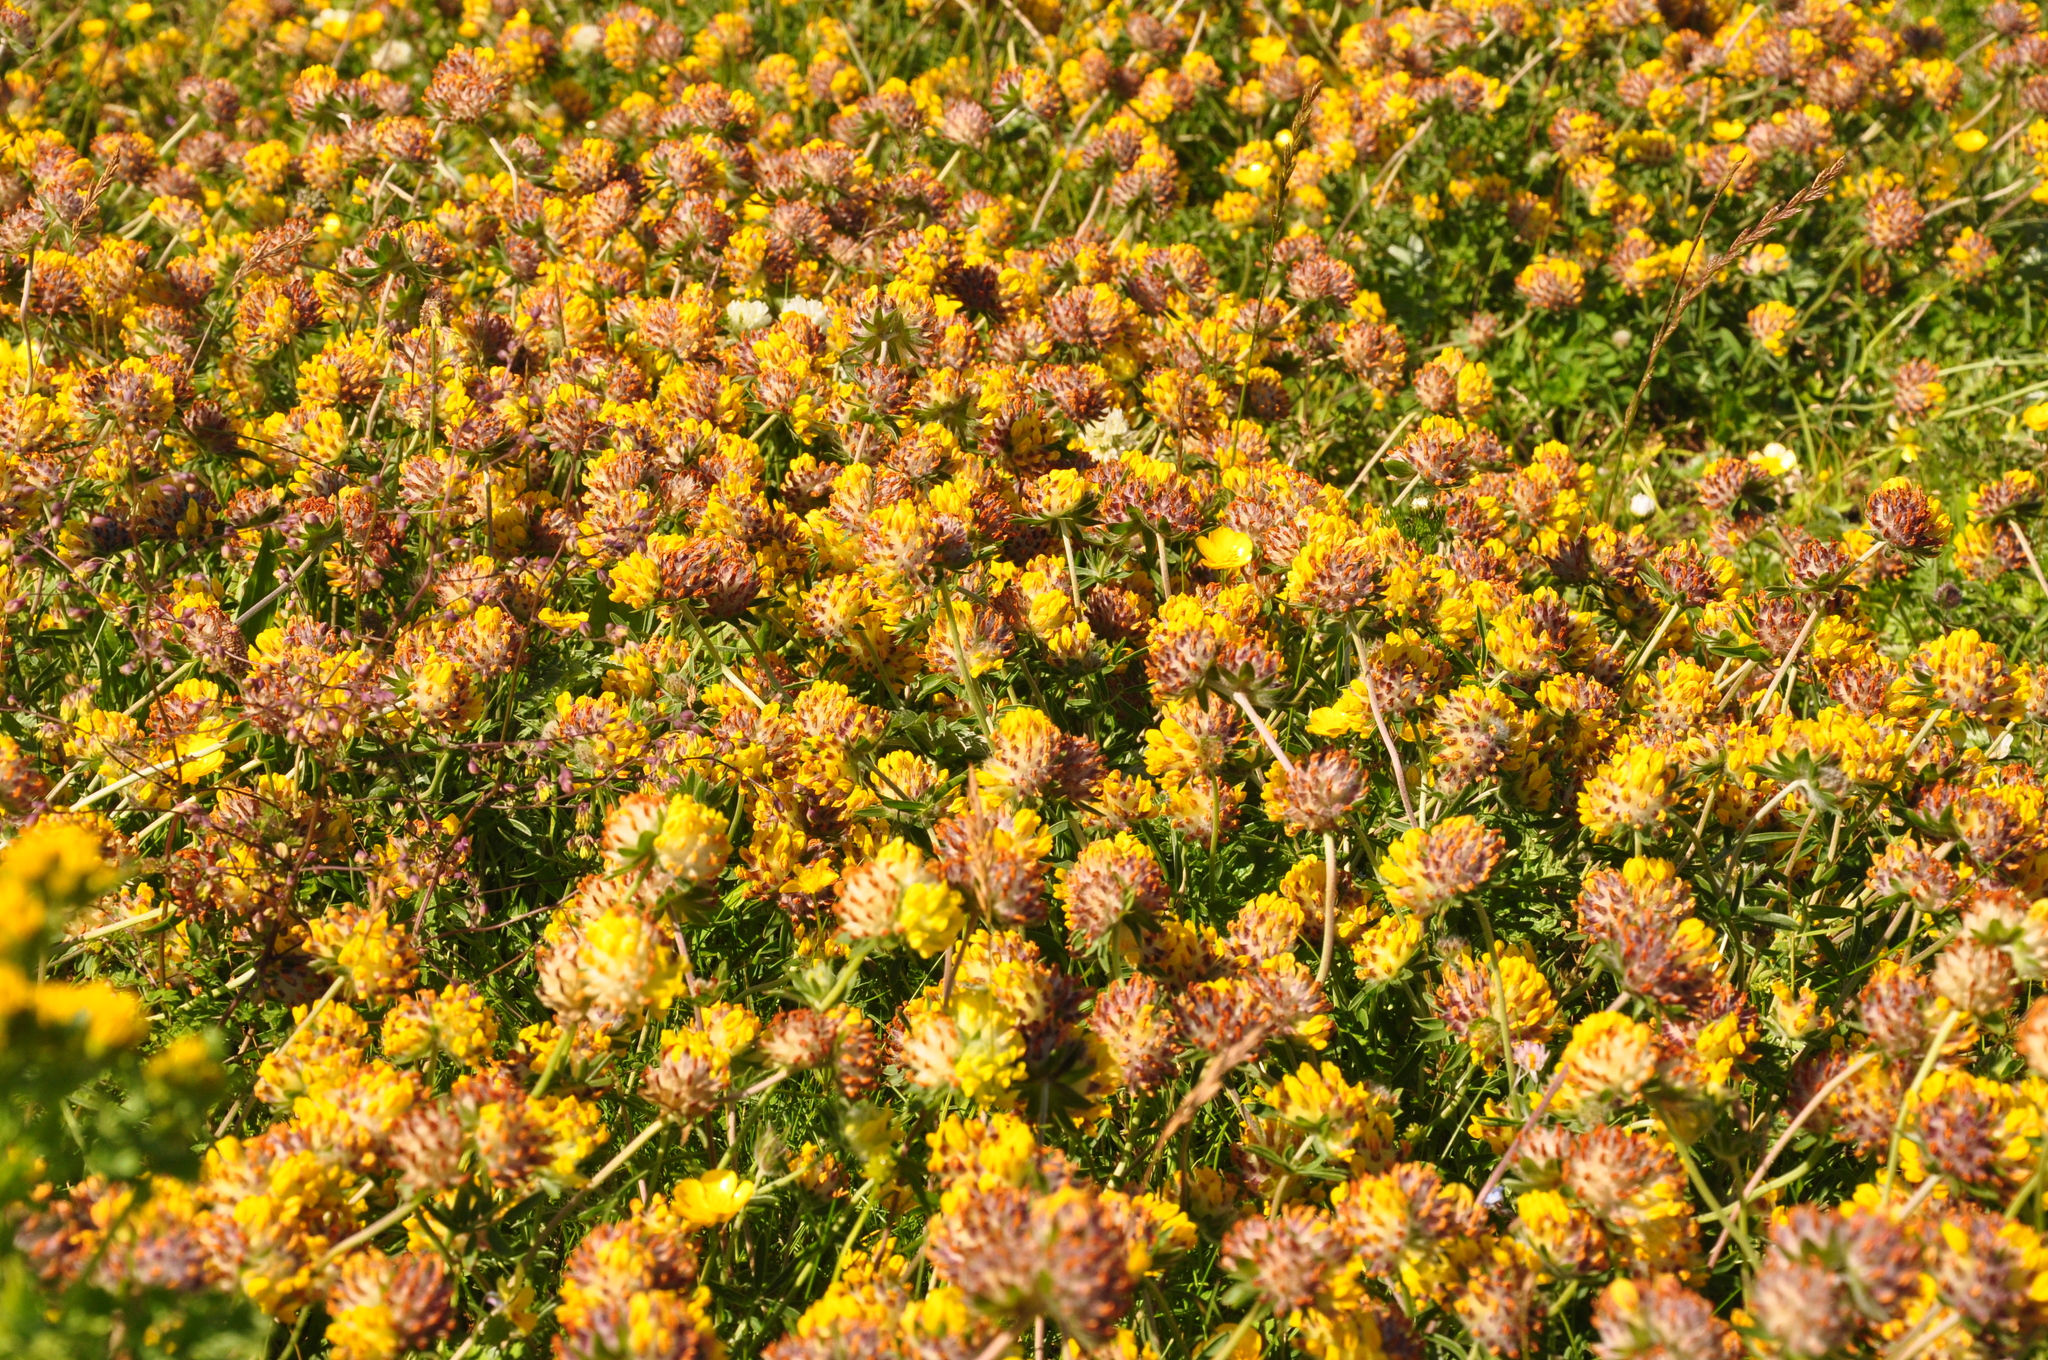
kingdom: Plantae
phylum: Tracheophyta
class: Magnoliopsida
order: Fabales
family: Fabaceae
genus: Anthyllis
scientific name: Anthyllis vulneraria
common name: Kidney vetch
